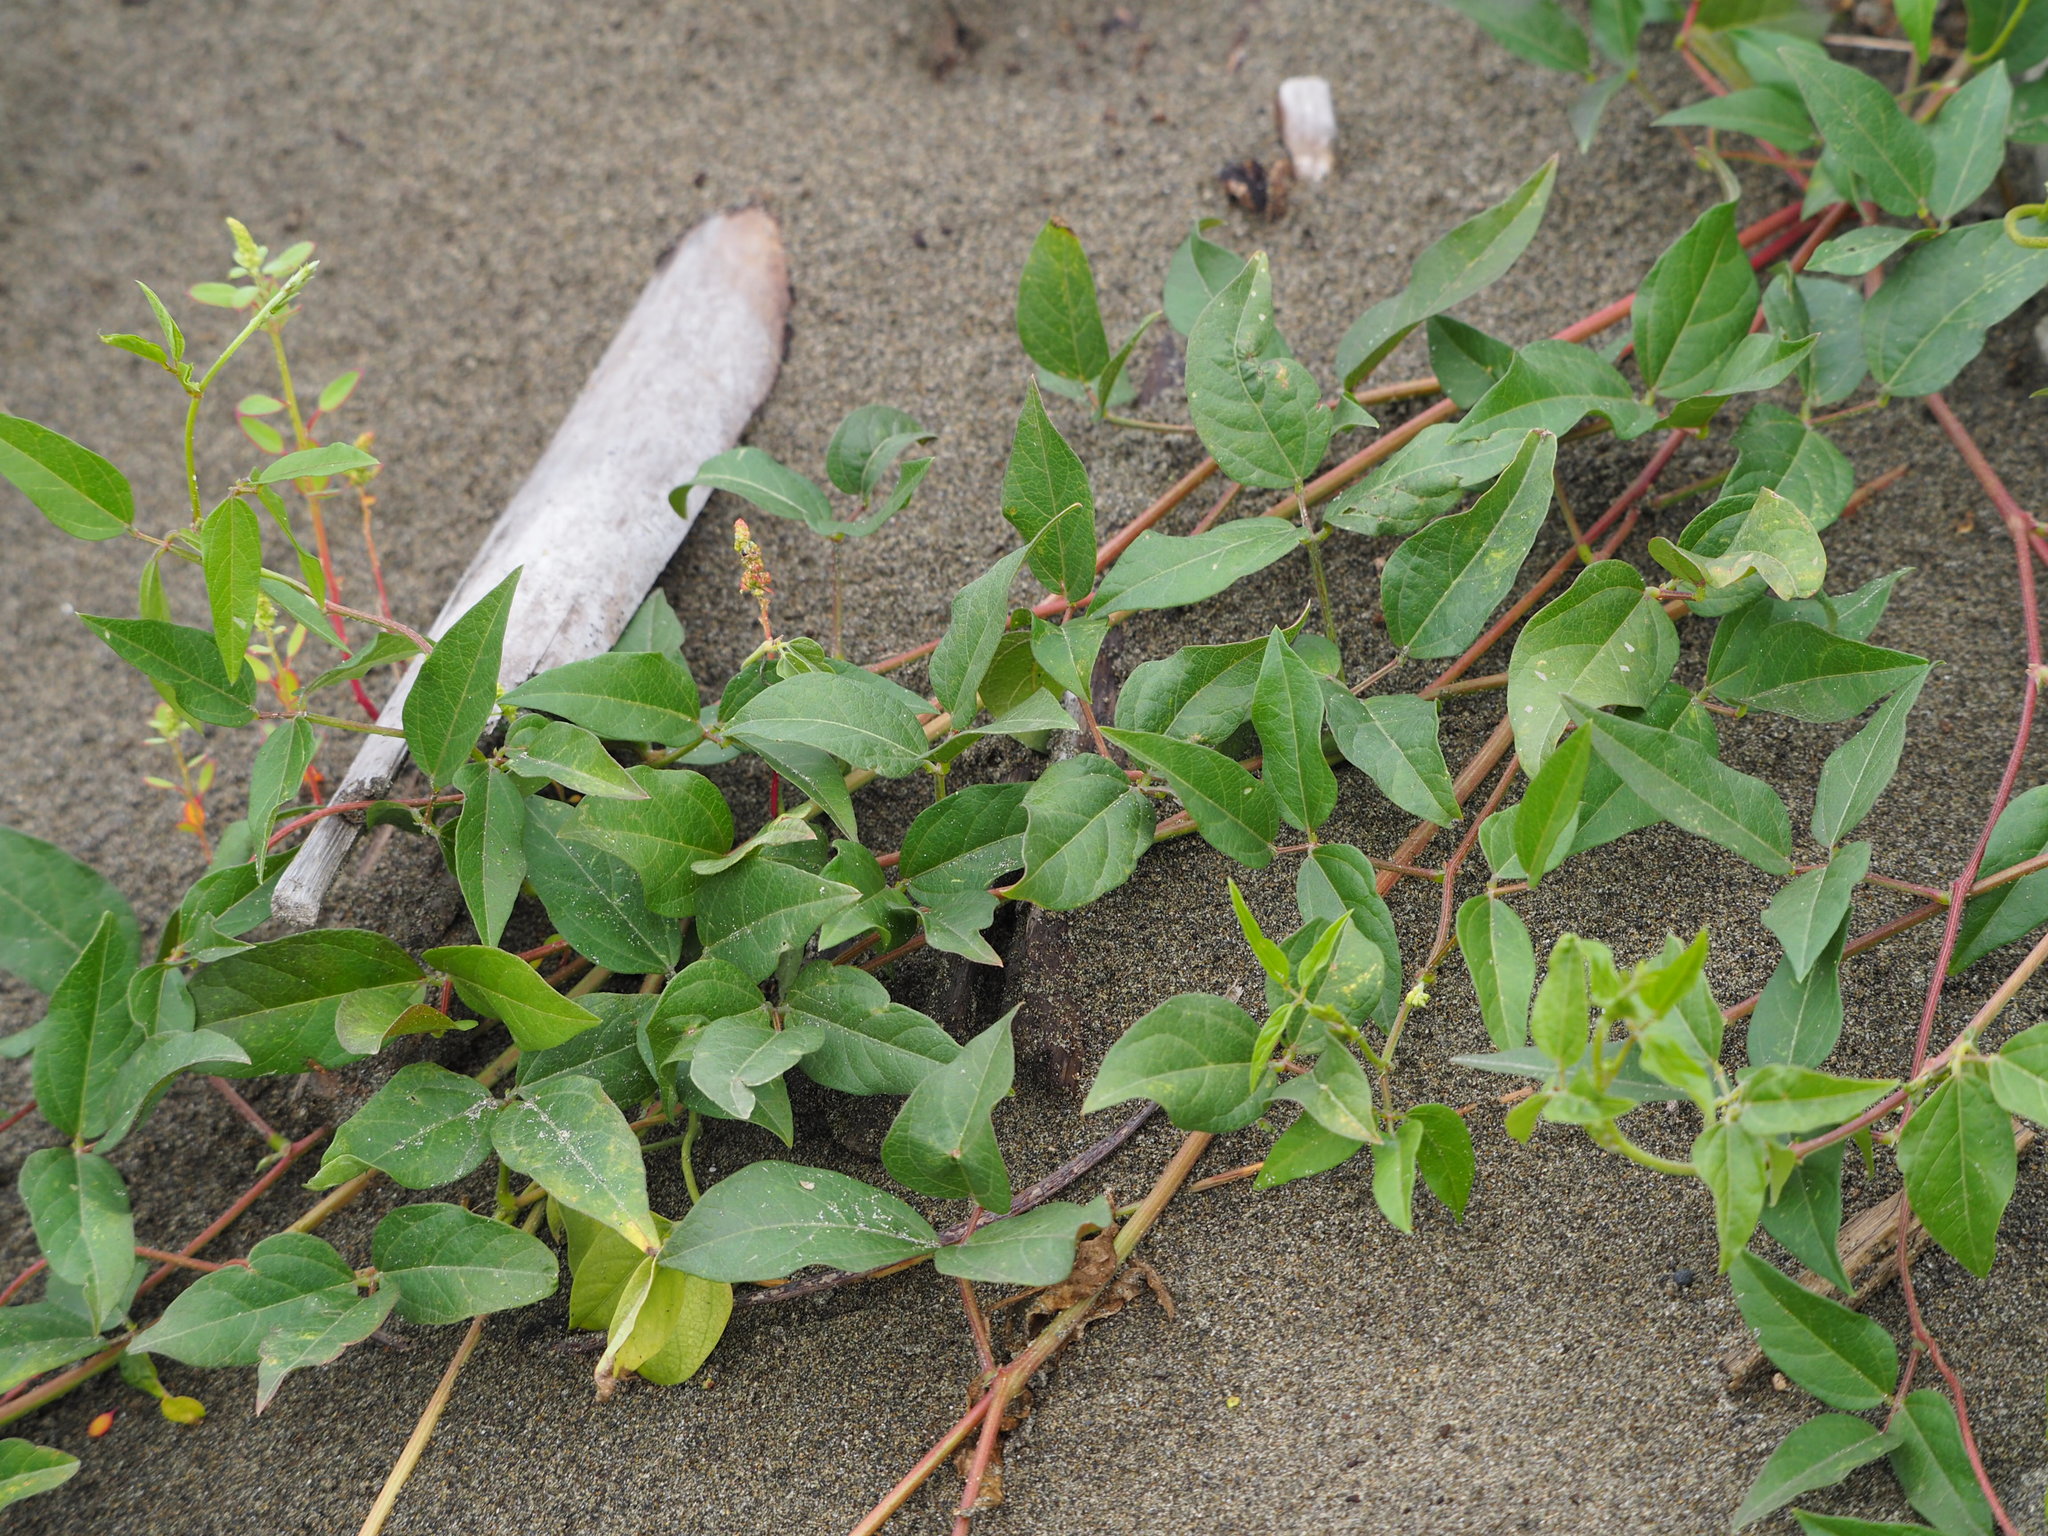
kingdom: Plantae
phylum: Tracheophyta
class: Magnoliopsida
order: Fabales
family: Fabaceae
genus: Vigna
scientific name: Vigna luteola
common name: Hairypod cowpea
